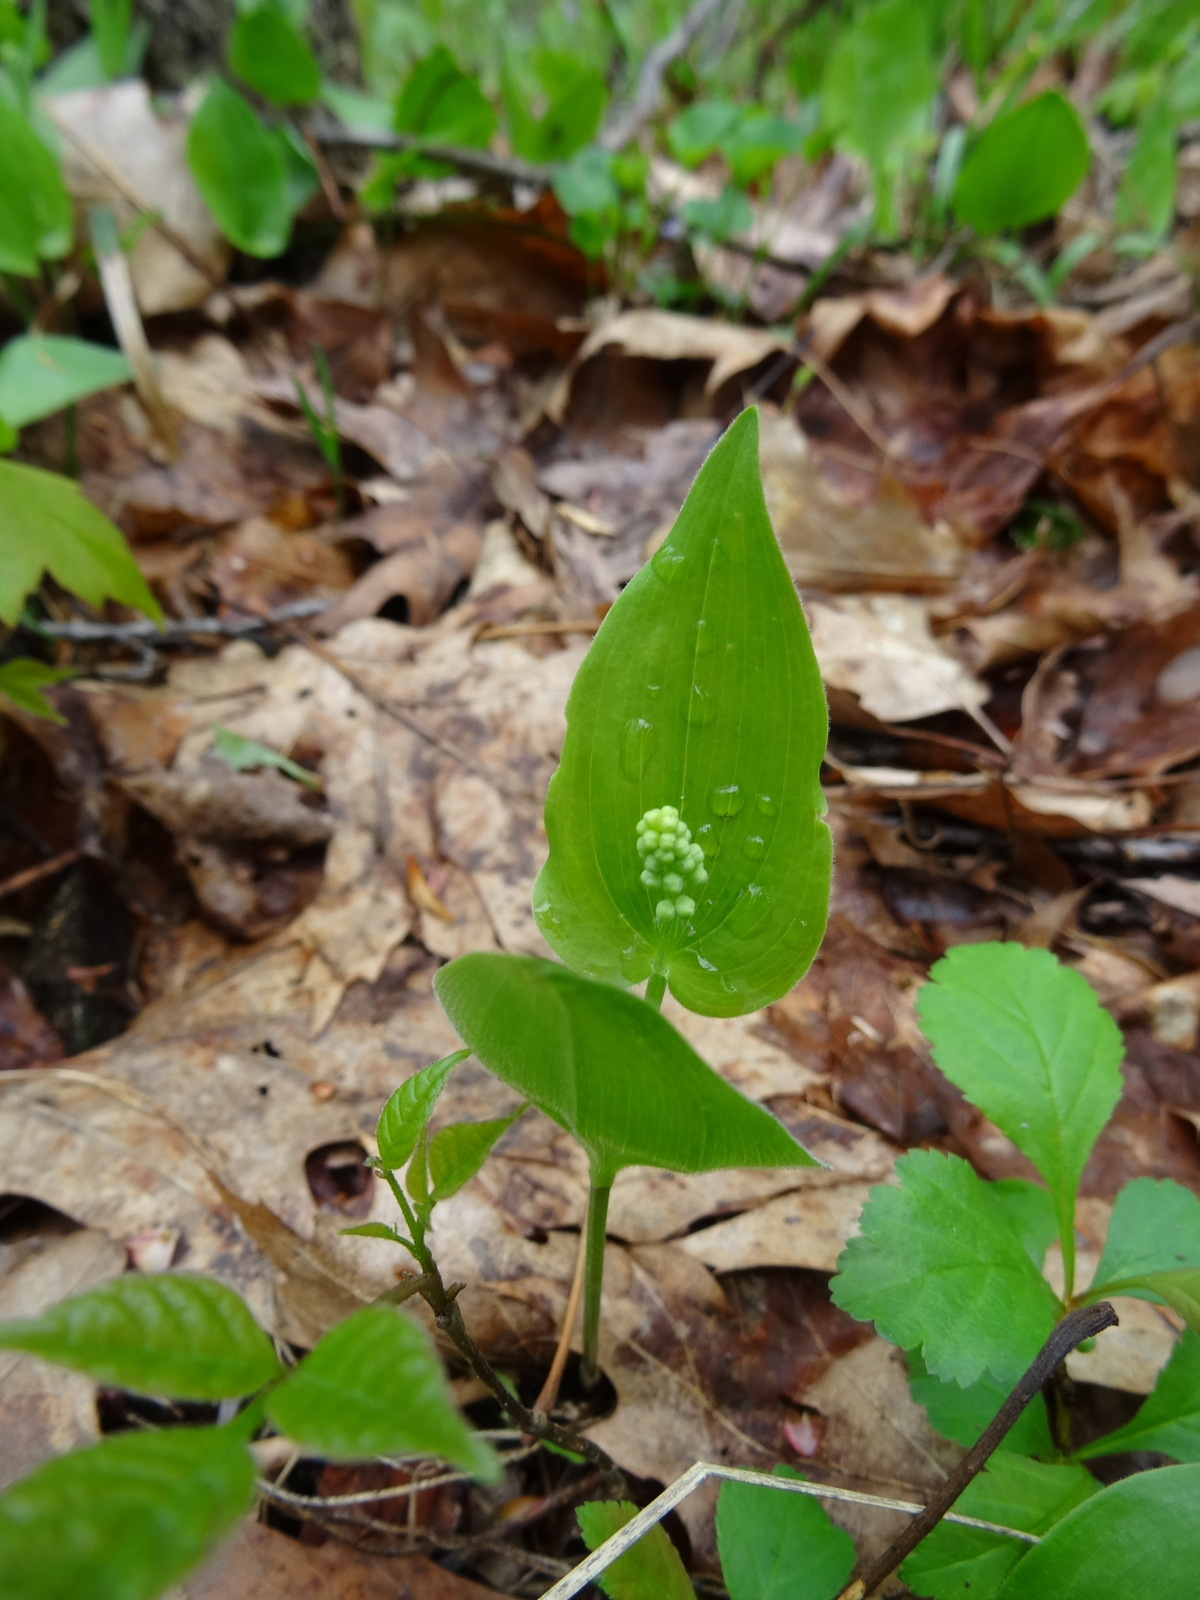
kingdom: Plantae
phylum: Tracheophyta
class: Liliopsida
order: Asparagales
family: Asparagaceae
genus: Maianthemum
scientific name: Maianthemum canadense
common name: False lily-of-the-valley
